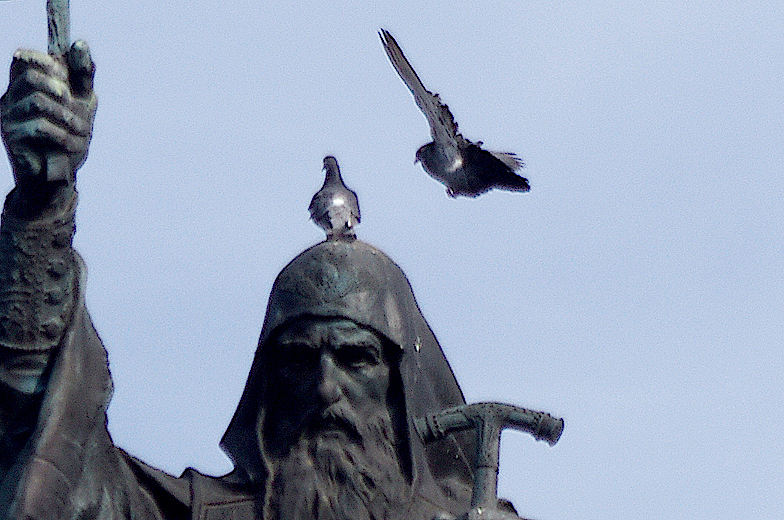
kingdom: Animalia
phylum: Chordata
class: Aves
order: Columbiformes
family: Columbidae
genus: Columba
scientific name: Columba livia
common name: Rock pigeon
